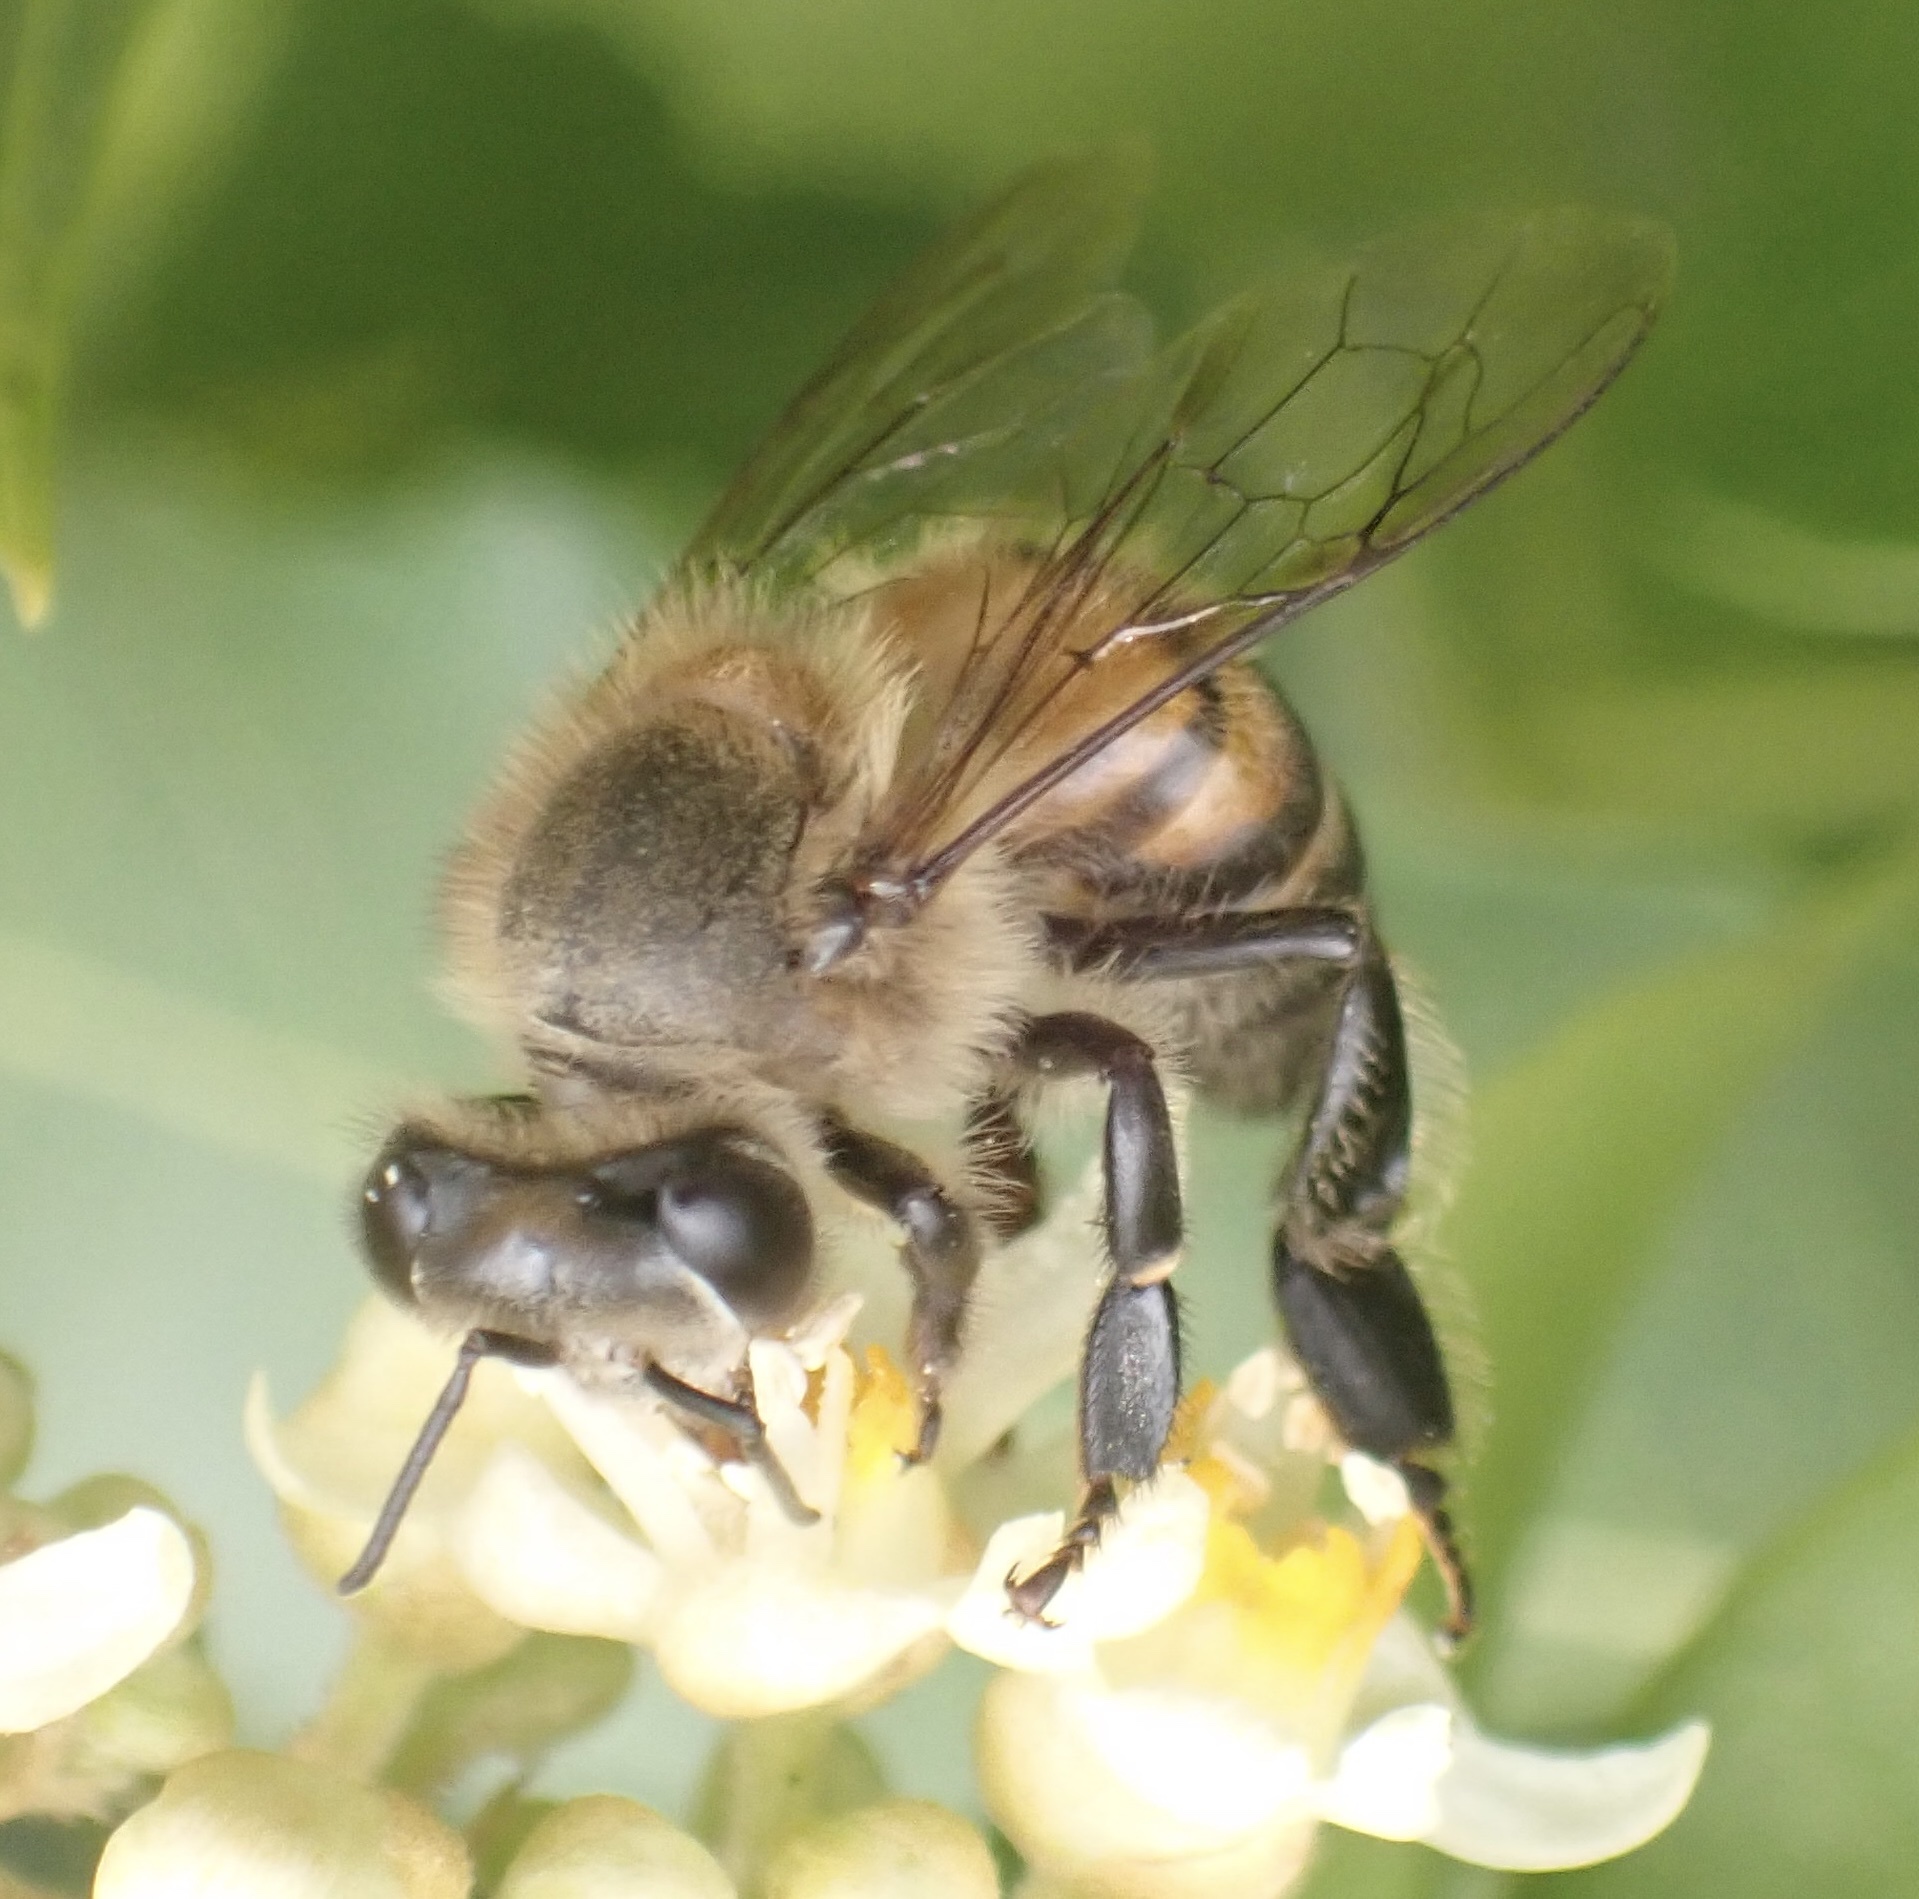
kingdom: Animalia
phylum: Arthropoda
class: Insecta
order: Hymenoptera
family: Apidae
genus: Apis
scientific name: Apis mellifera
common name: Honey bee
